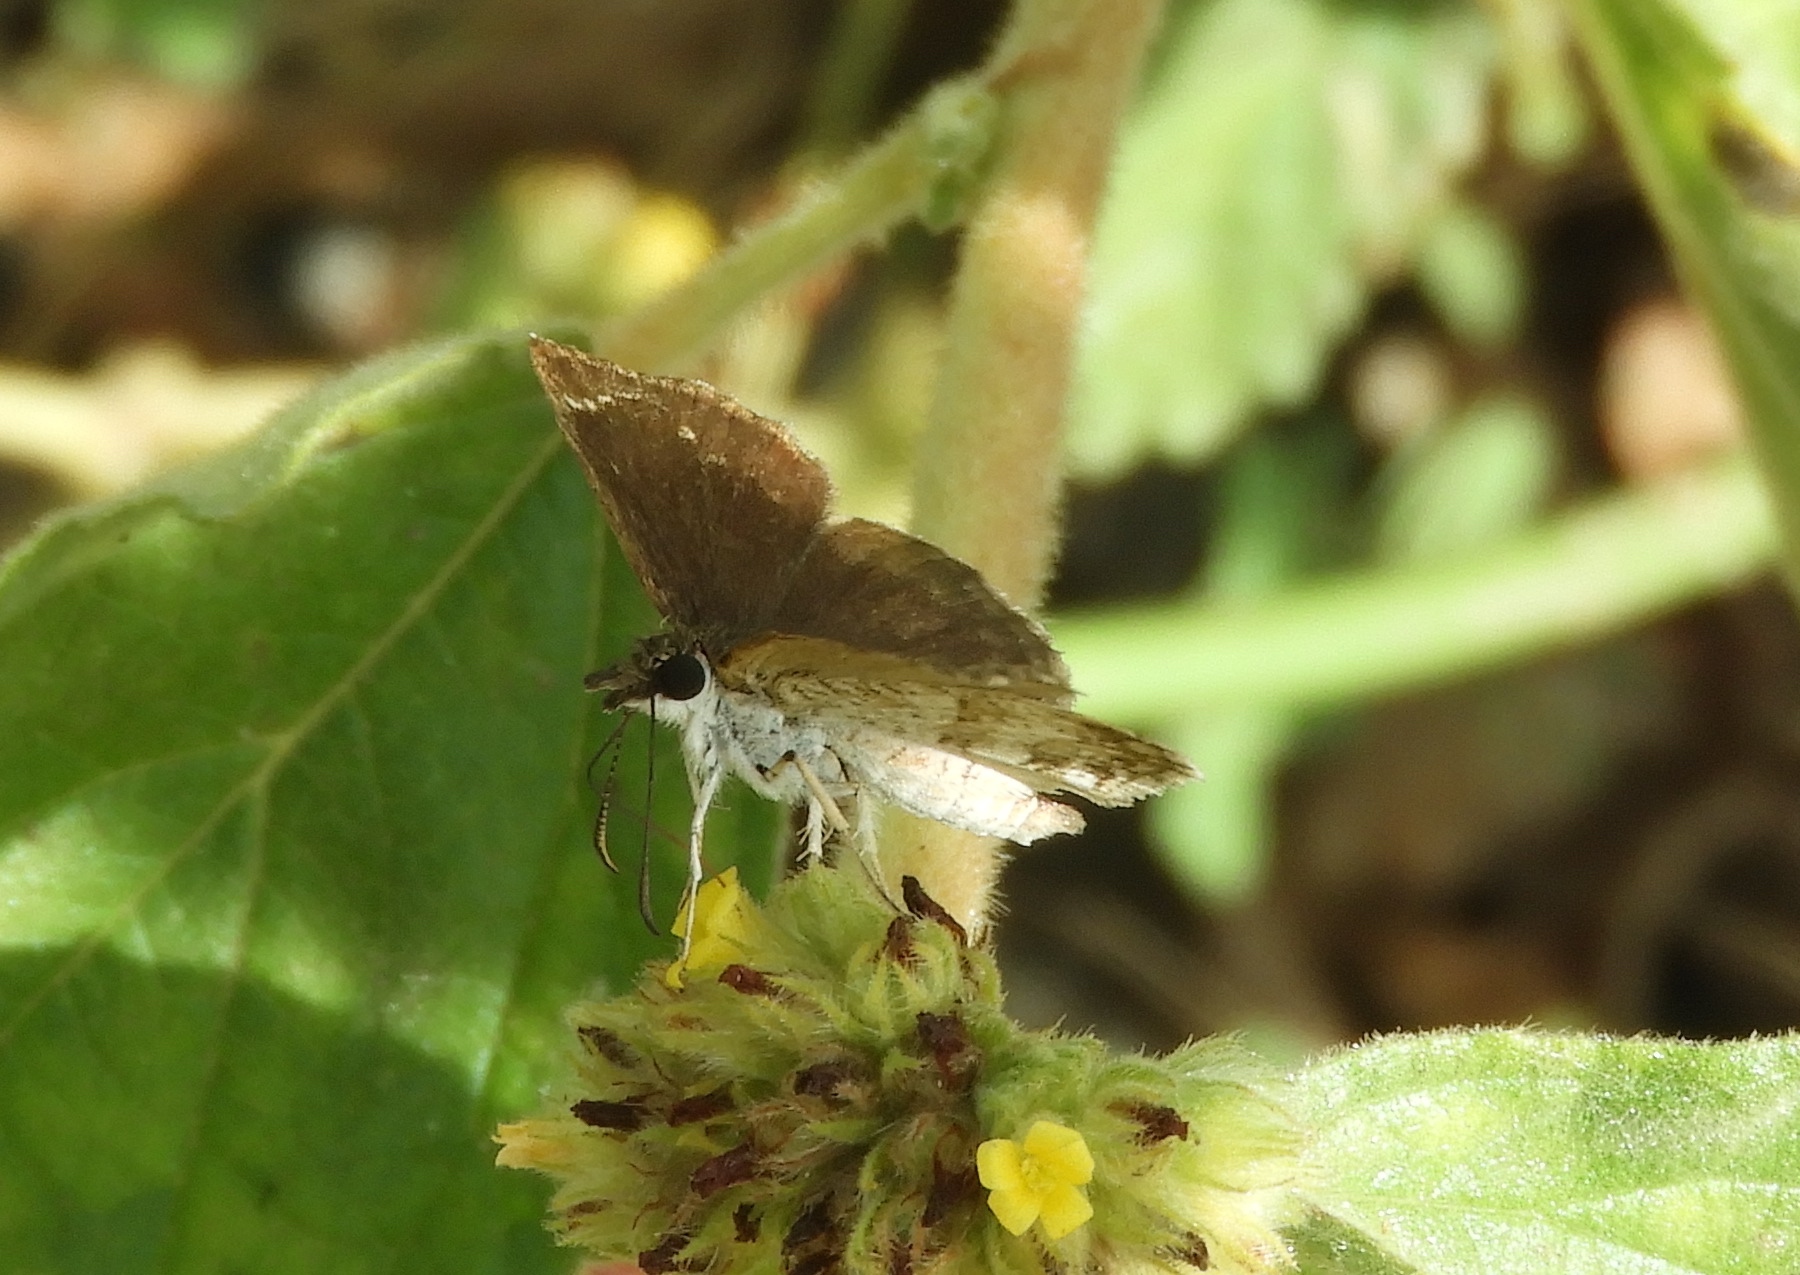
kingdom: Animalia
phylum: Arthropoda
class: Insecta
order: Lepidoptera
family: Hesperiidae
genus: Zopyrion
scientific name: Zopyrion sandace
